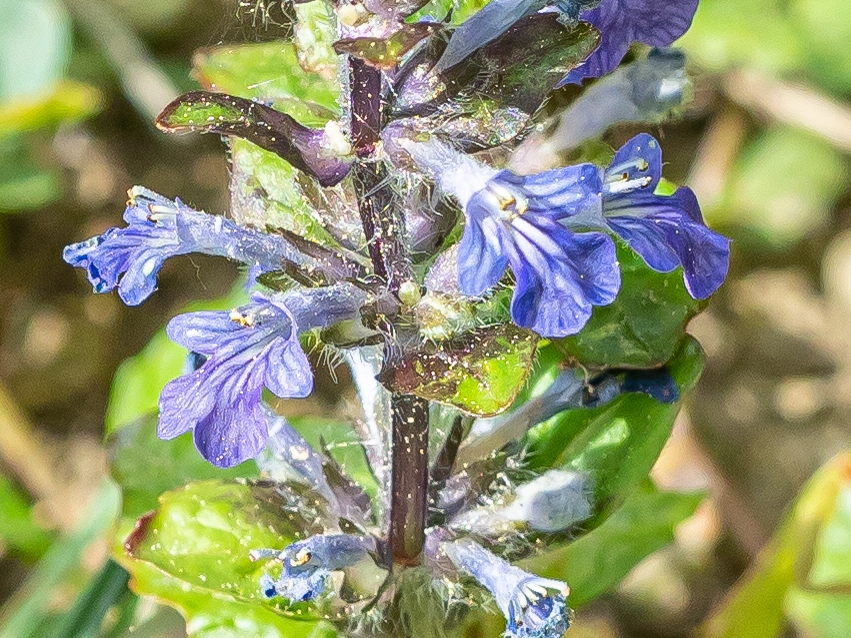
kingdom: Plantae
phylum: Tracheophyta
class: Magnoliopsida
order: Lamiales
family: Lamiaceae
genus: Ajuga
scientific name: Ajuga reptans
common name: Bugle
